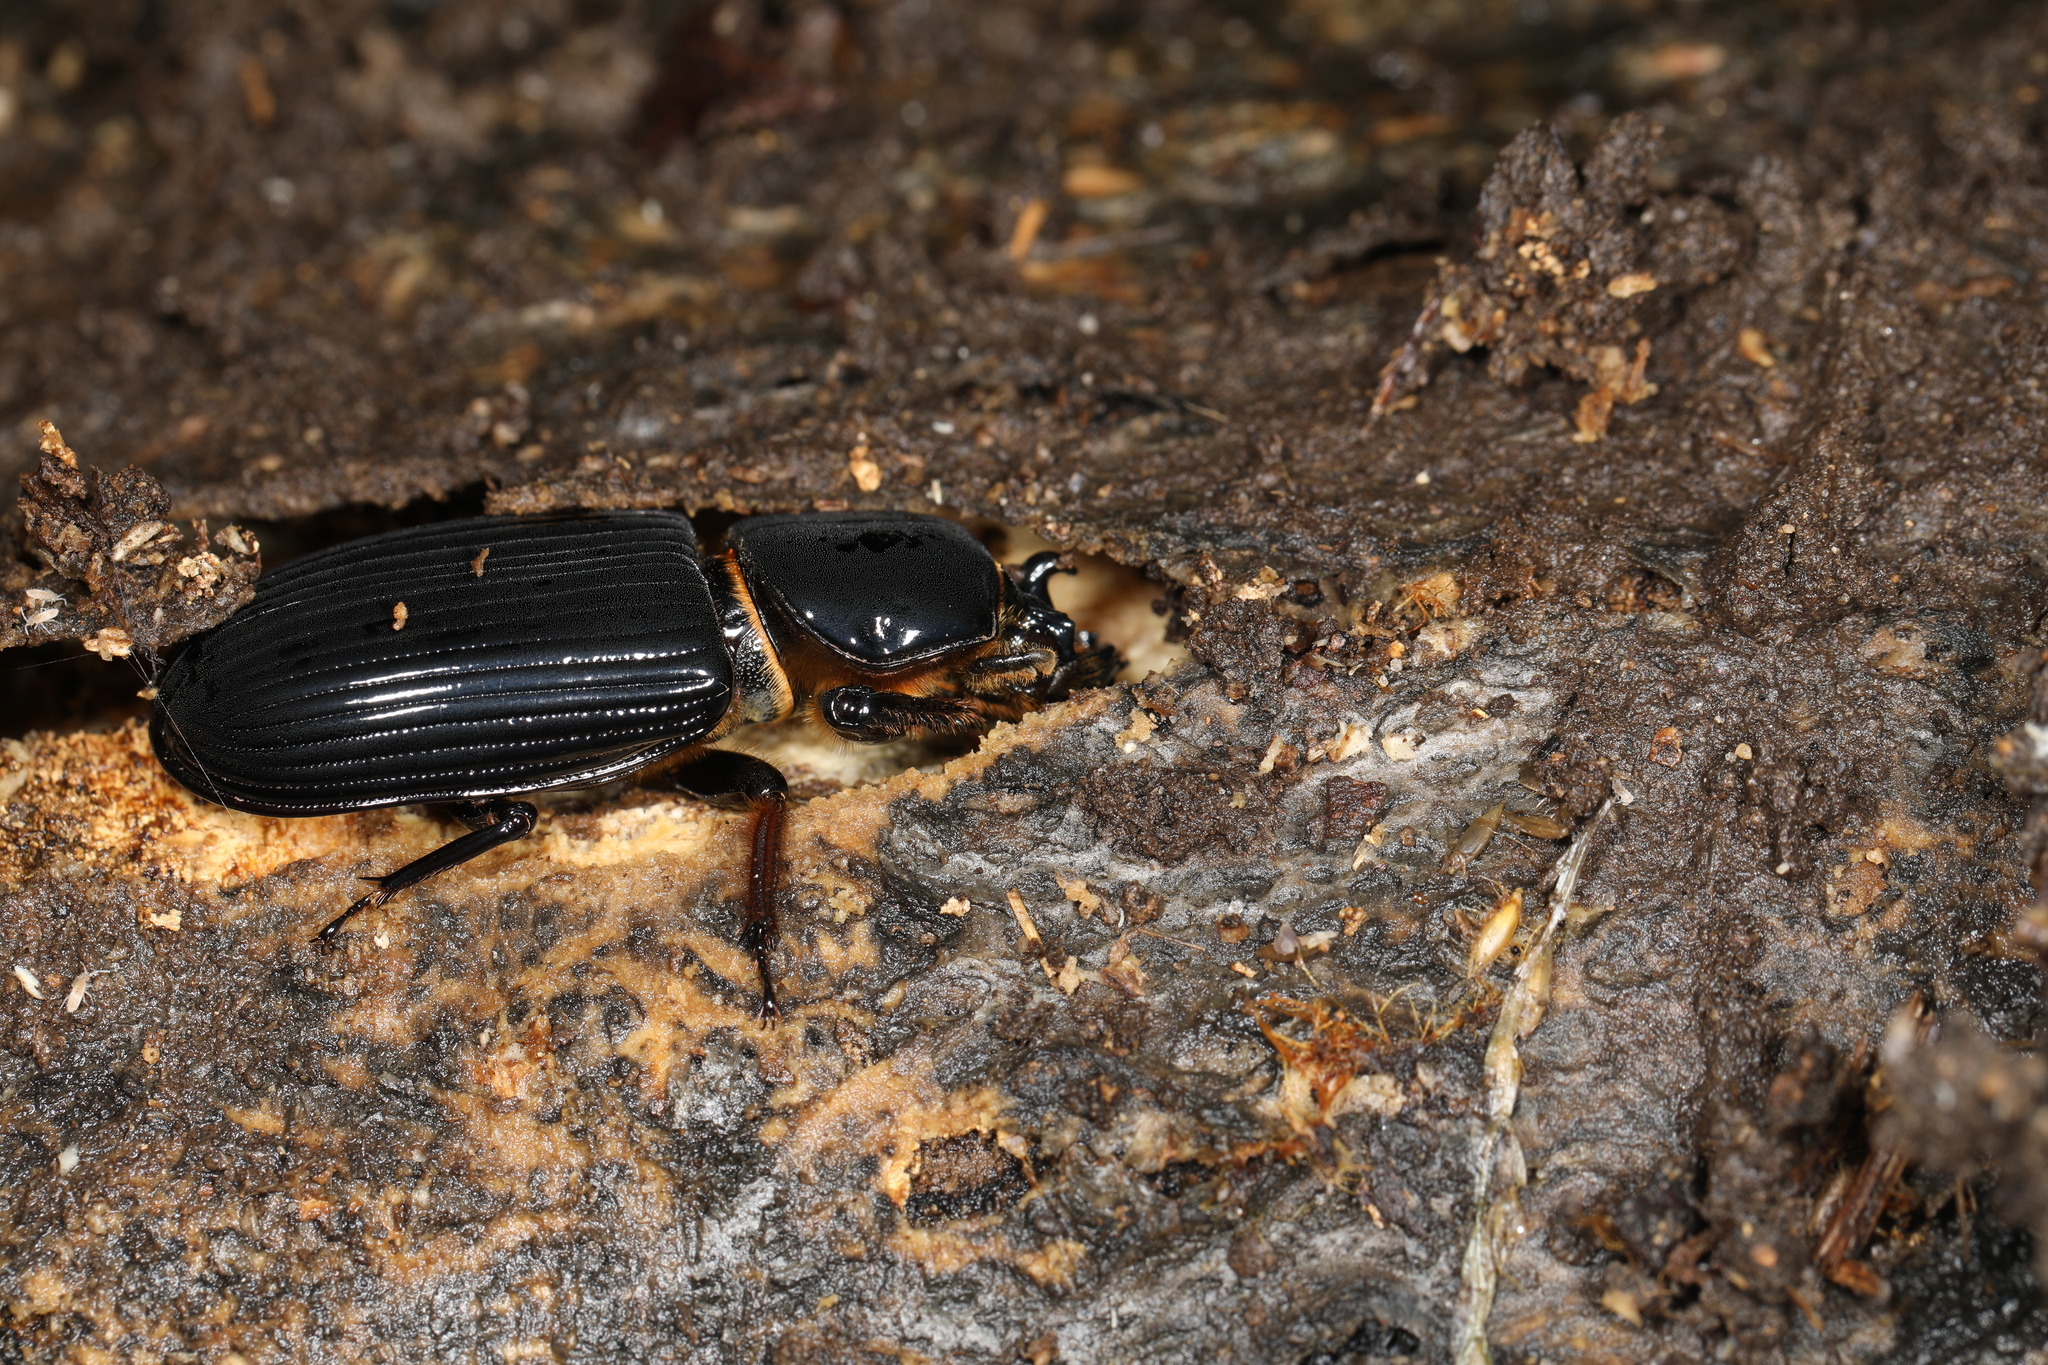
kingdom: Animalia
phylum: Arthropoda
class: Insecta
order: Coleoptera
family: Passalidae
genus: Odontotaenius
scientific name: Odontotaenius disjunctus
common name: Patent leather beetle
